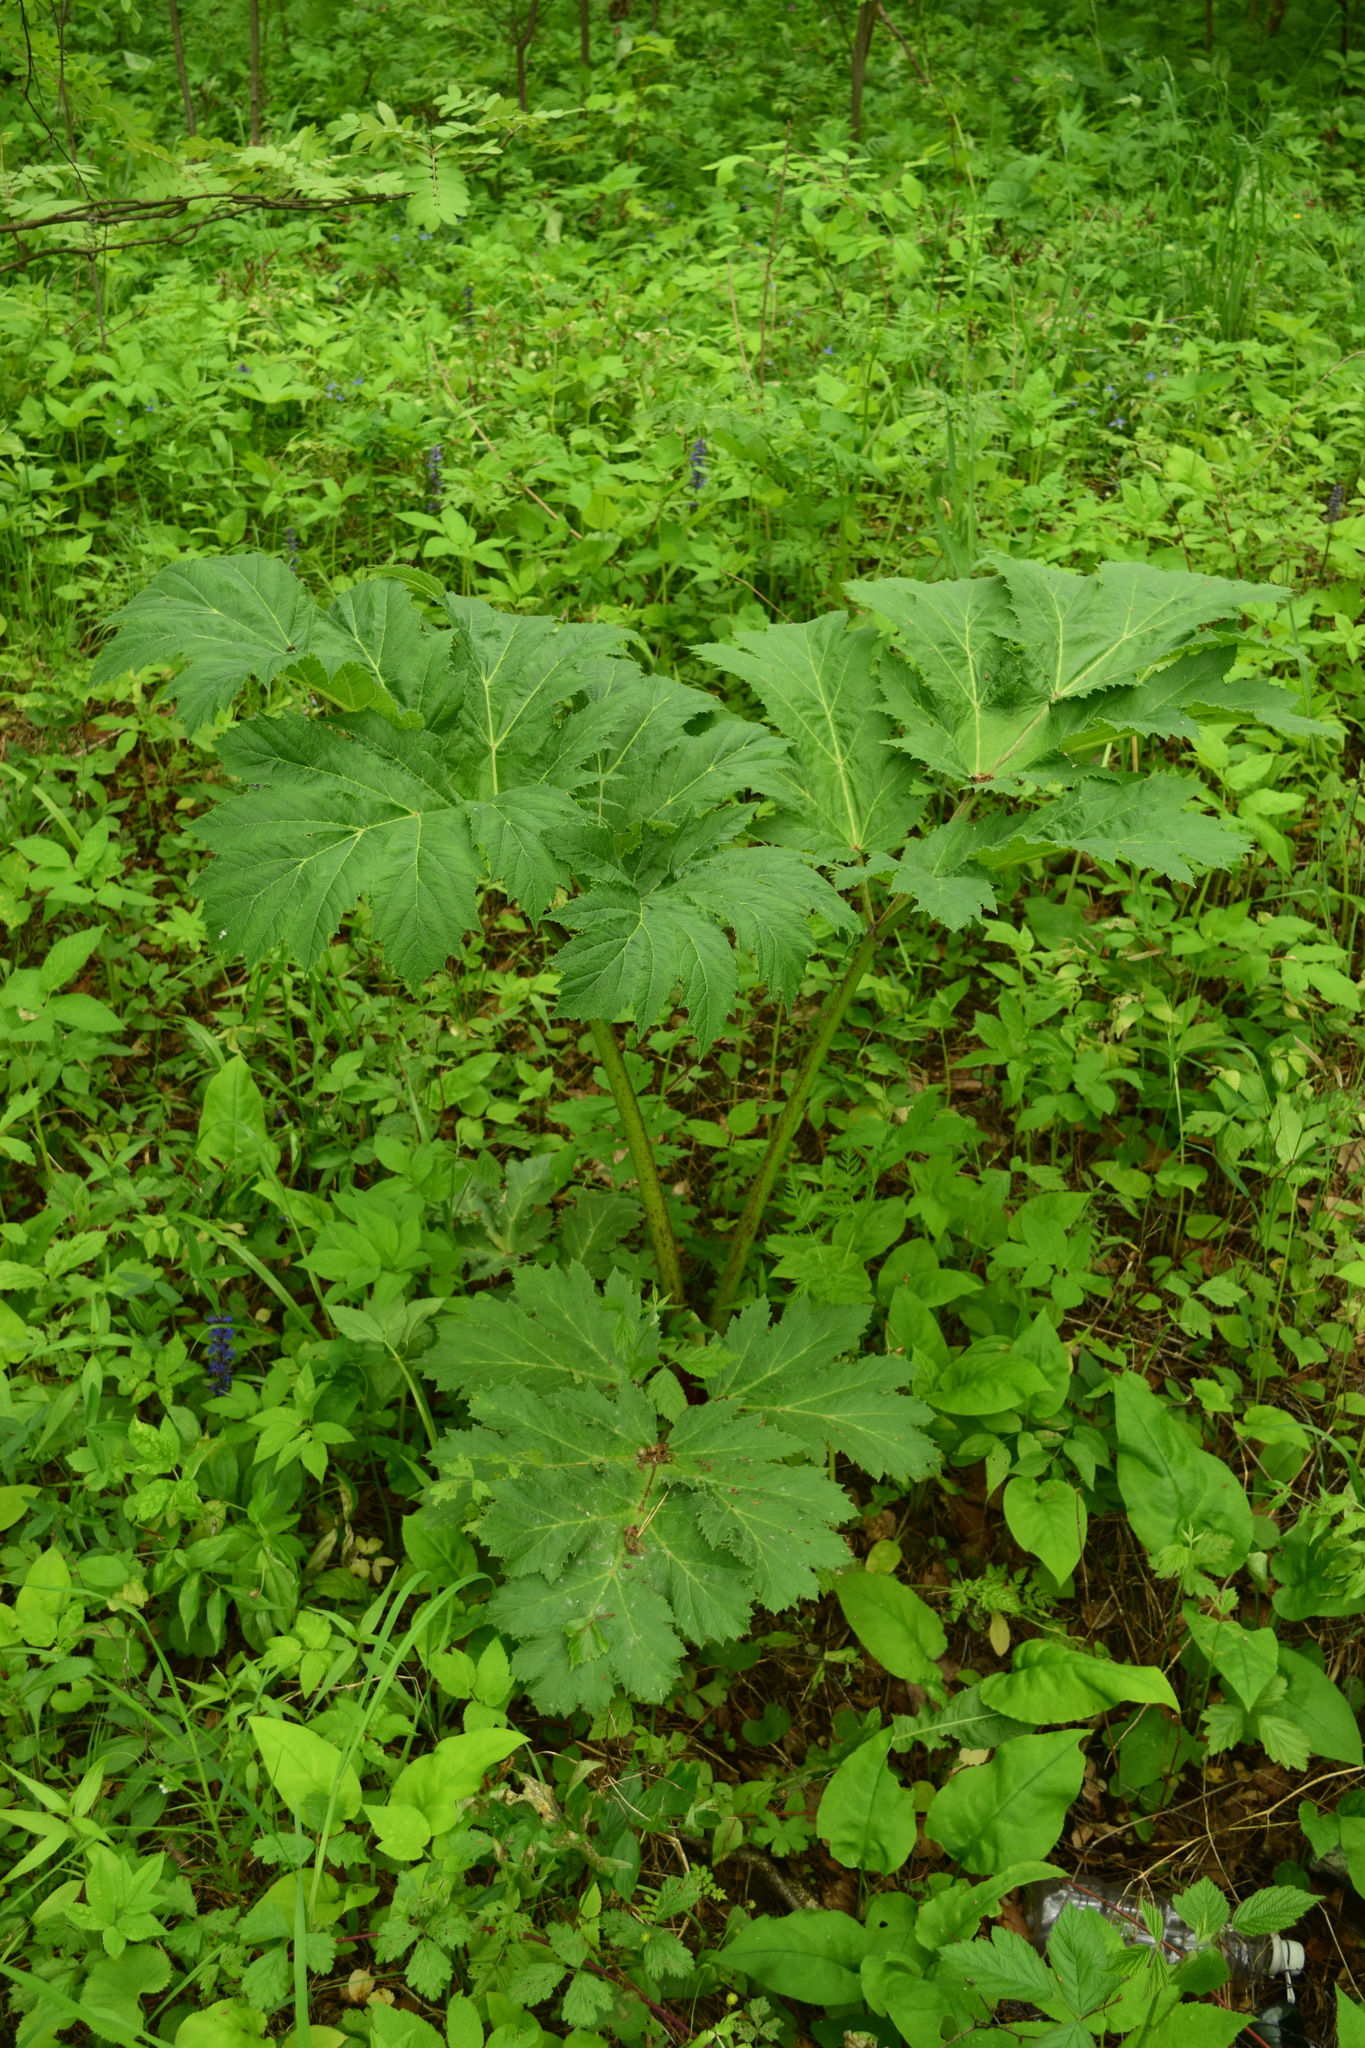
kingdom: Plantae
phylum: Tracheophyta
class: Magnoliopsida
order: Apiales
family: Apiaceae
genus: Heracleum
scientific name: Heracleum sosnowskyi
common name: Sosnowsky's hogweed
